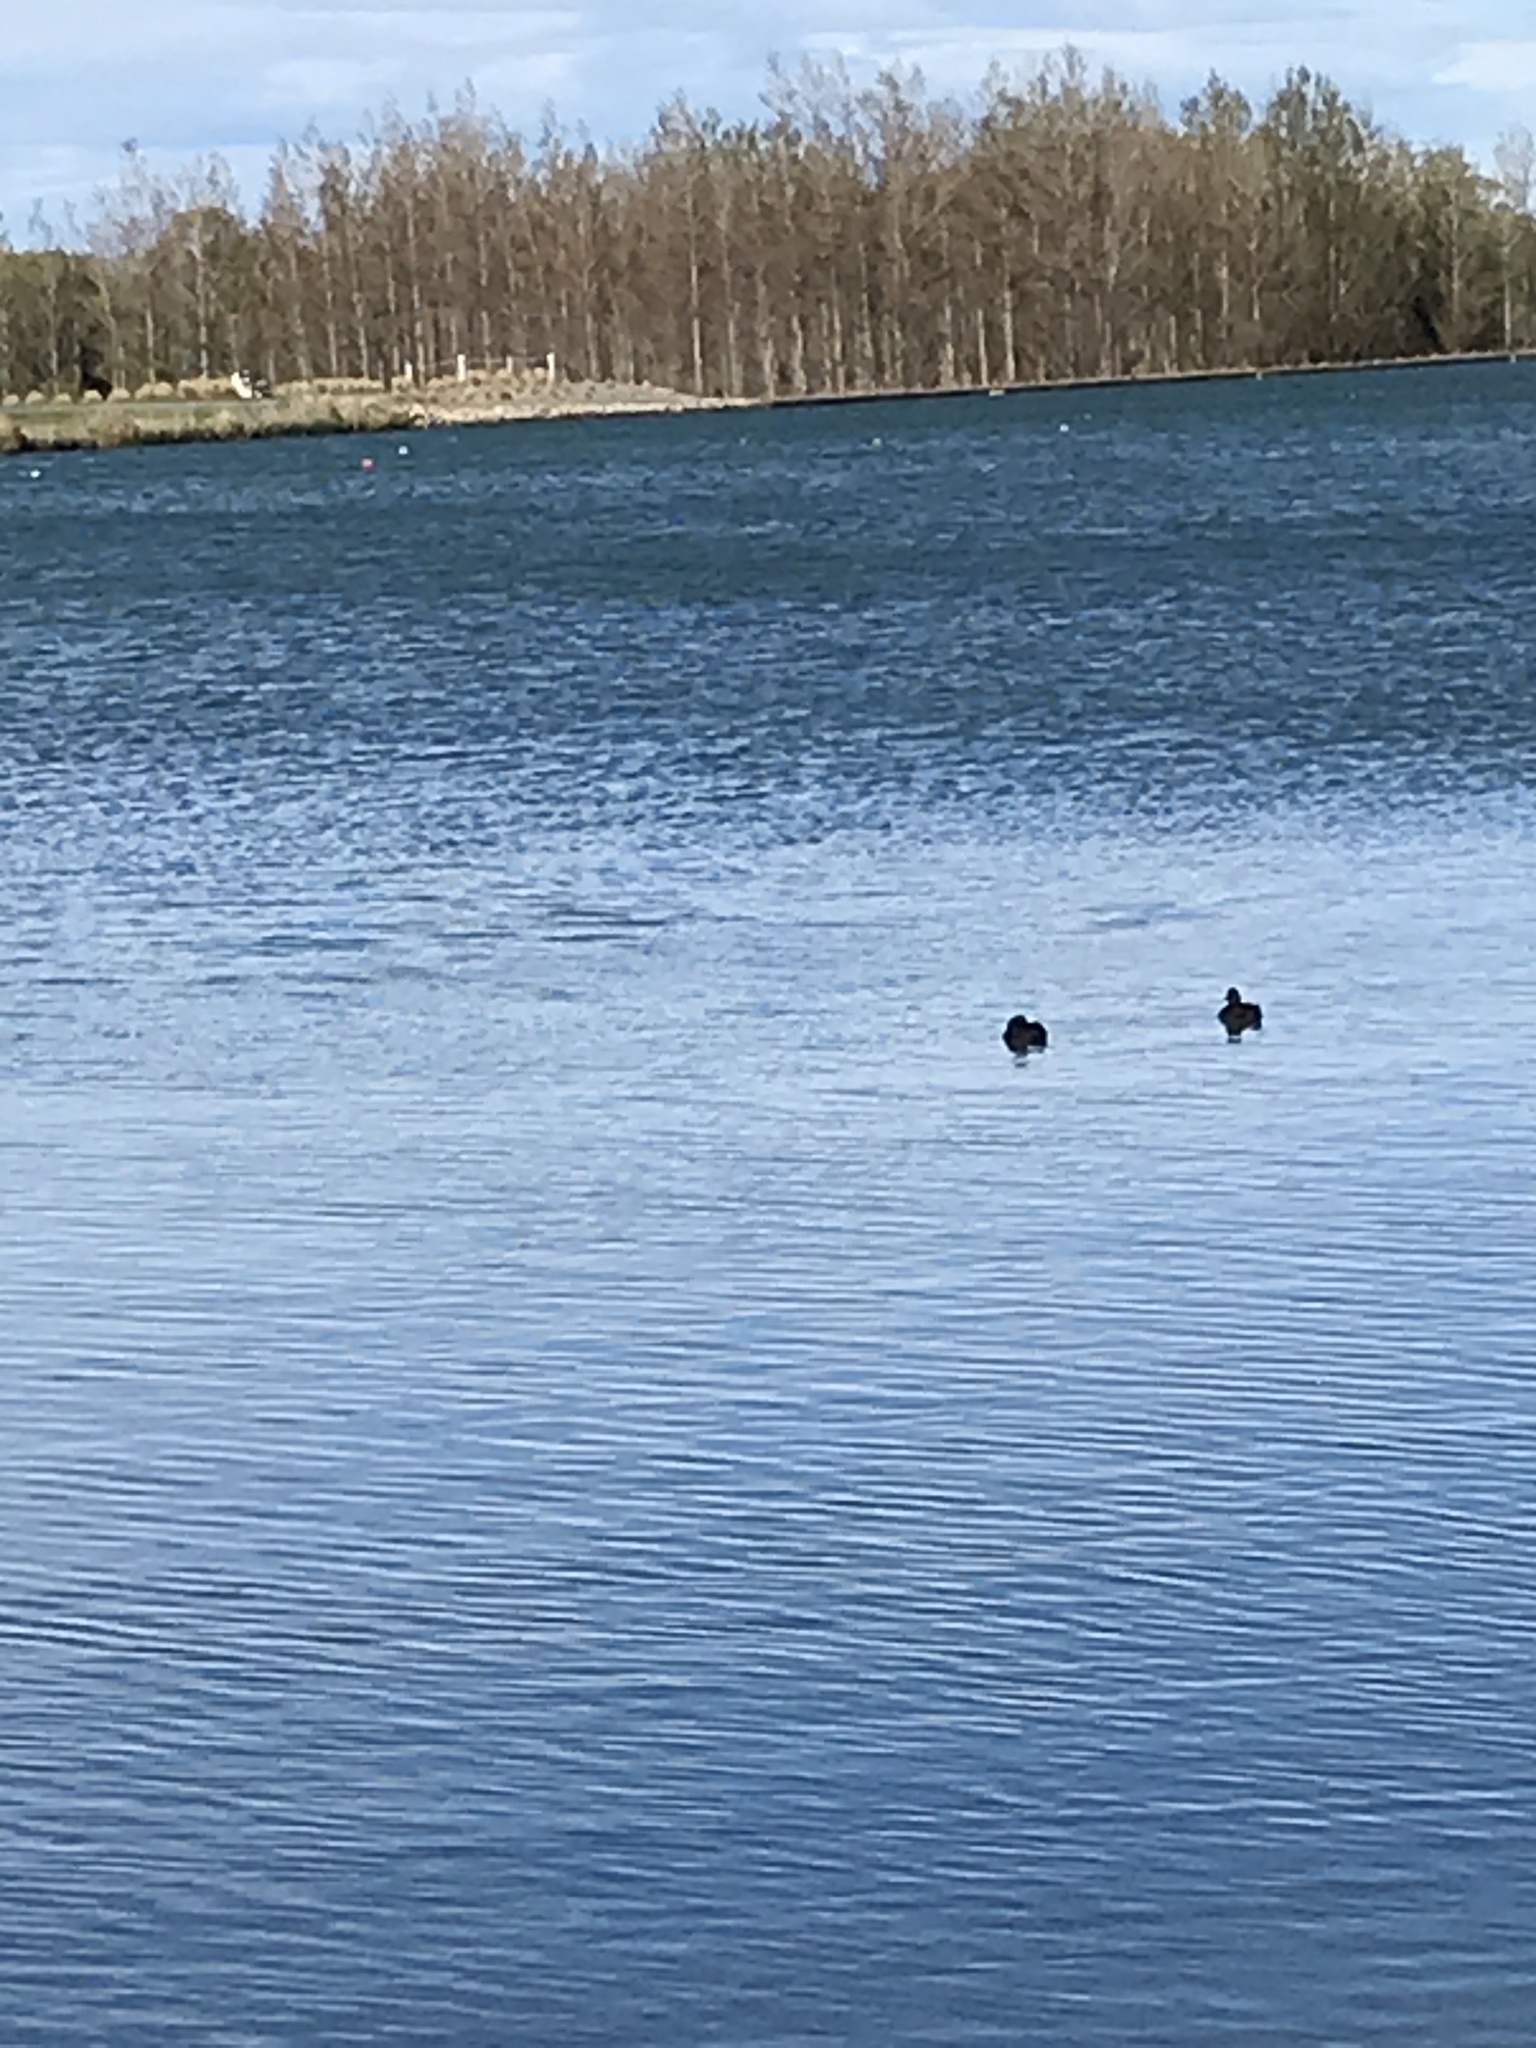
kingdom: Animalia
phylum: Chordata
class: Aves
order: Anseriformes
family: Anatidae
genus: Aythya
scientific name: Aythya novaeseelandiae
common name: New zealand scaup
